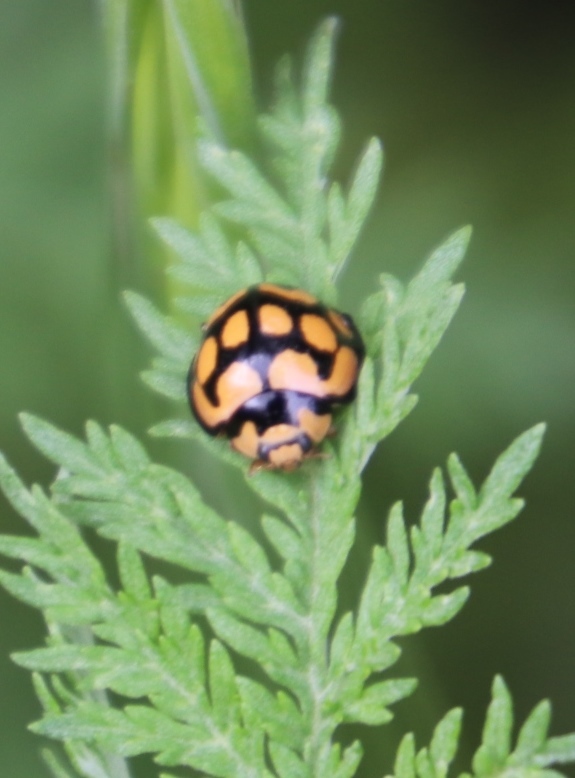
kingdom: Animalia
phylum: Arthropoda
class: Insecta
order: Coleoptera
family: Coccinellidae
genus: Cheilomenes
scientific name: Cheilomenes lunata
